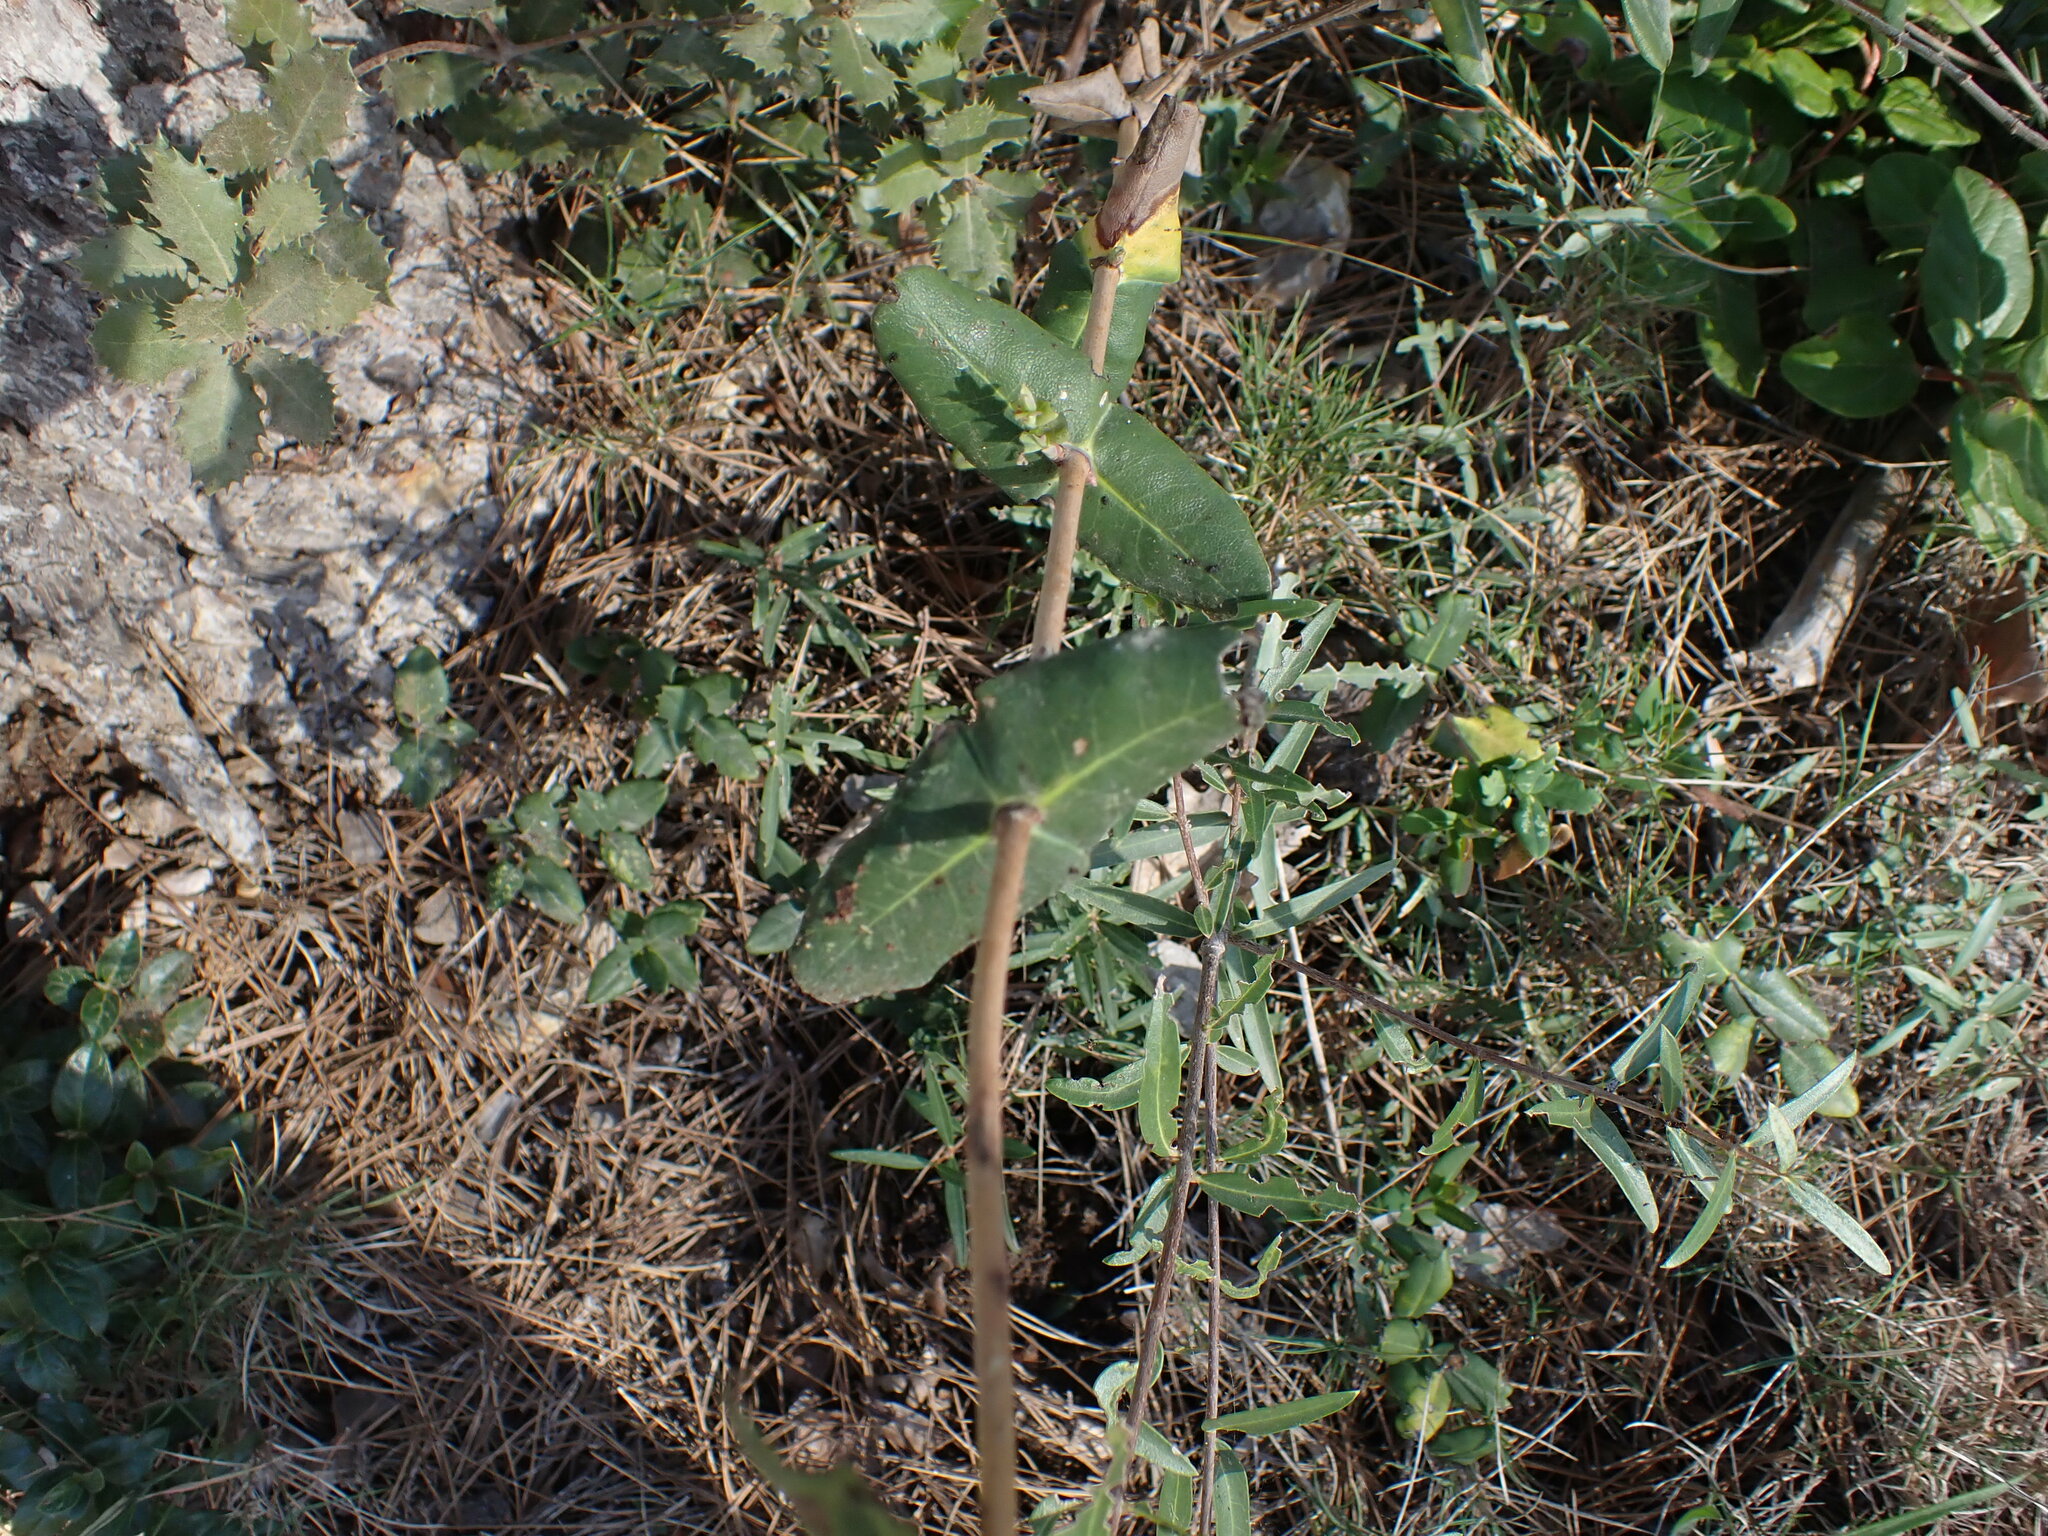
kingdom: Plantae
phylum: Tracheophyta
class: Magnoliopsida
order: Dipsacales
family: Caprifoliaceae
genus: Lonicera
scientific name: Lonicera implexa
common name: Minorca honeysuckle
